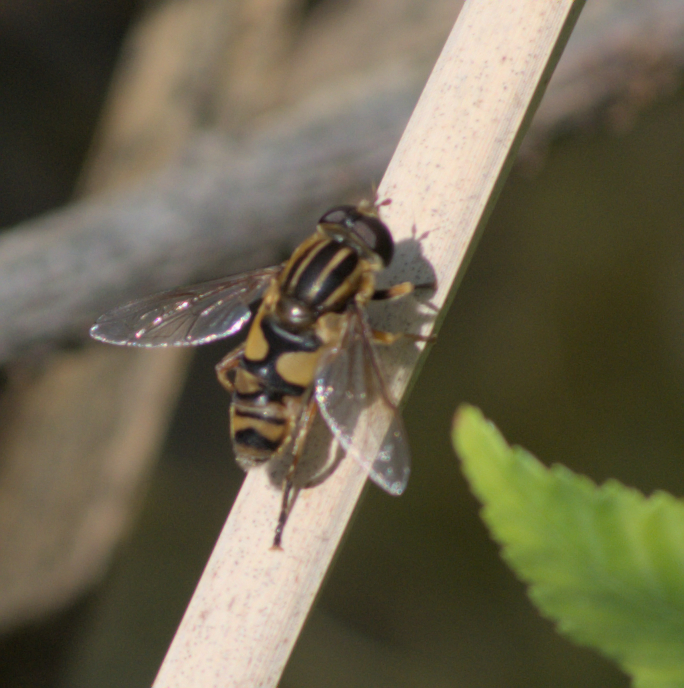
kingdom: Animalia
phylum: Arthropoda
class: Insecta
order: Diptera
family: Syrphidae
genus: Helophilus
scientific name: Helophilus fasciatus
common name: Narrow-headed marsh fly
